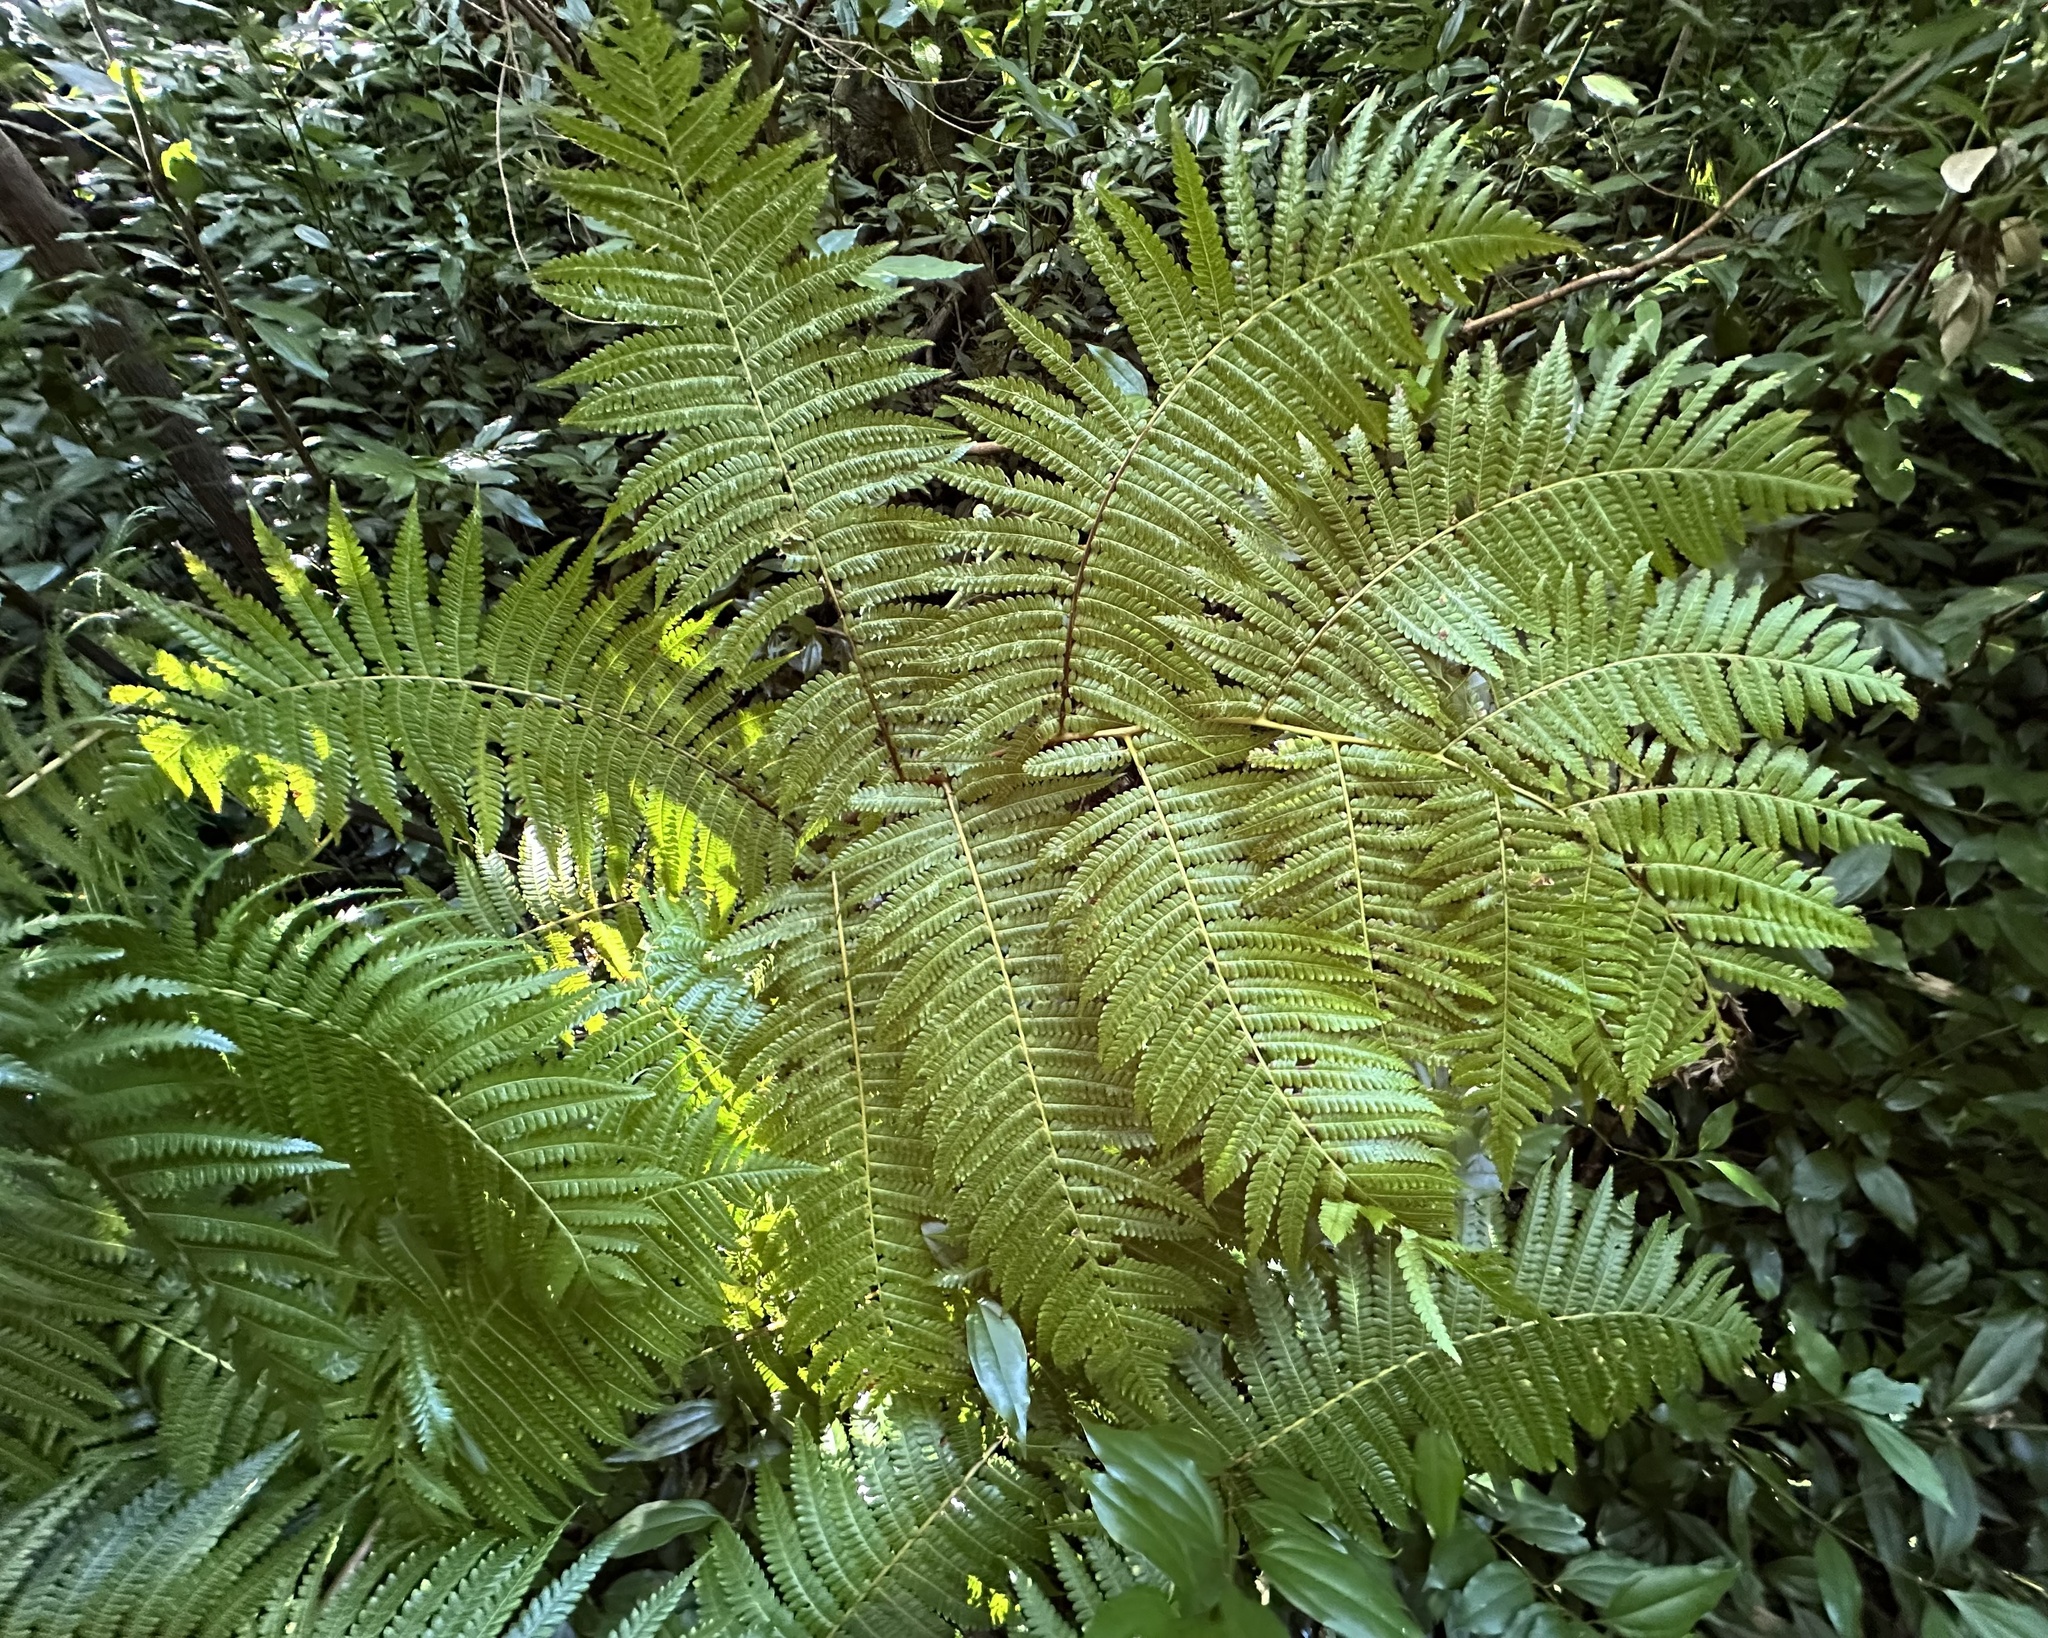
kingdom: Plantae
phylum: Tracheophyta
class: Polypodiopsida
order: Cyatheales
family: Cibotiaceae
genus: Cibotium
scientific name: Cibotium chamissoi
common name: Hawaiian tree fern
